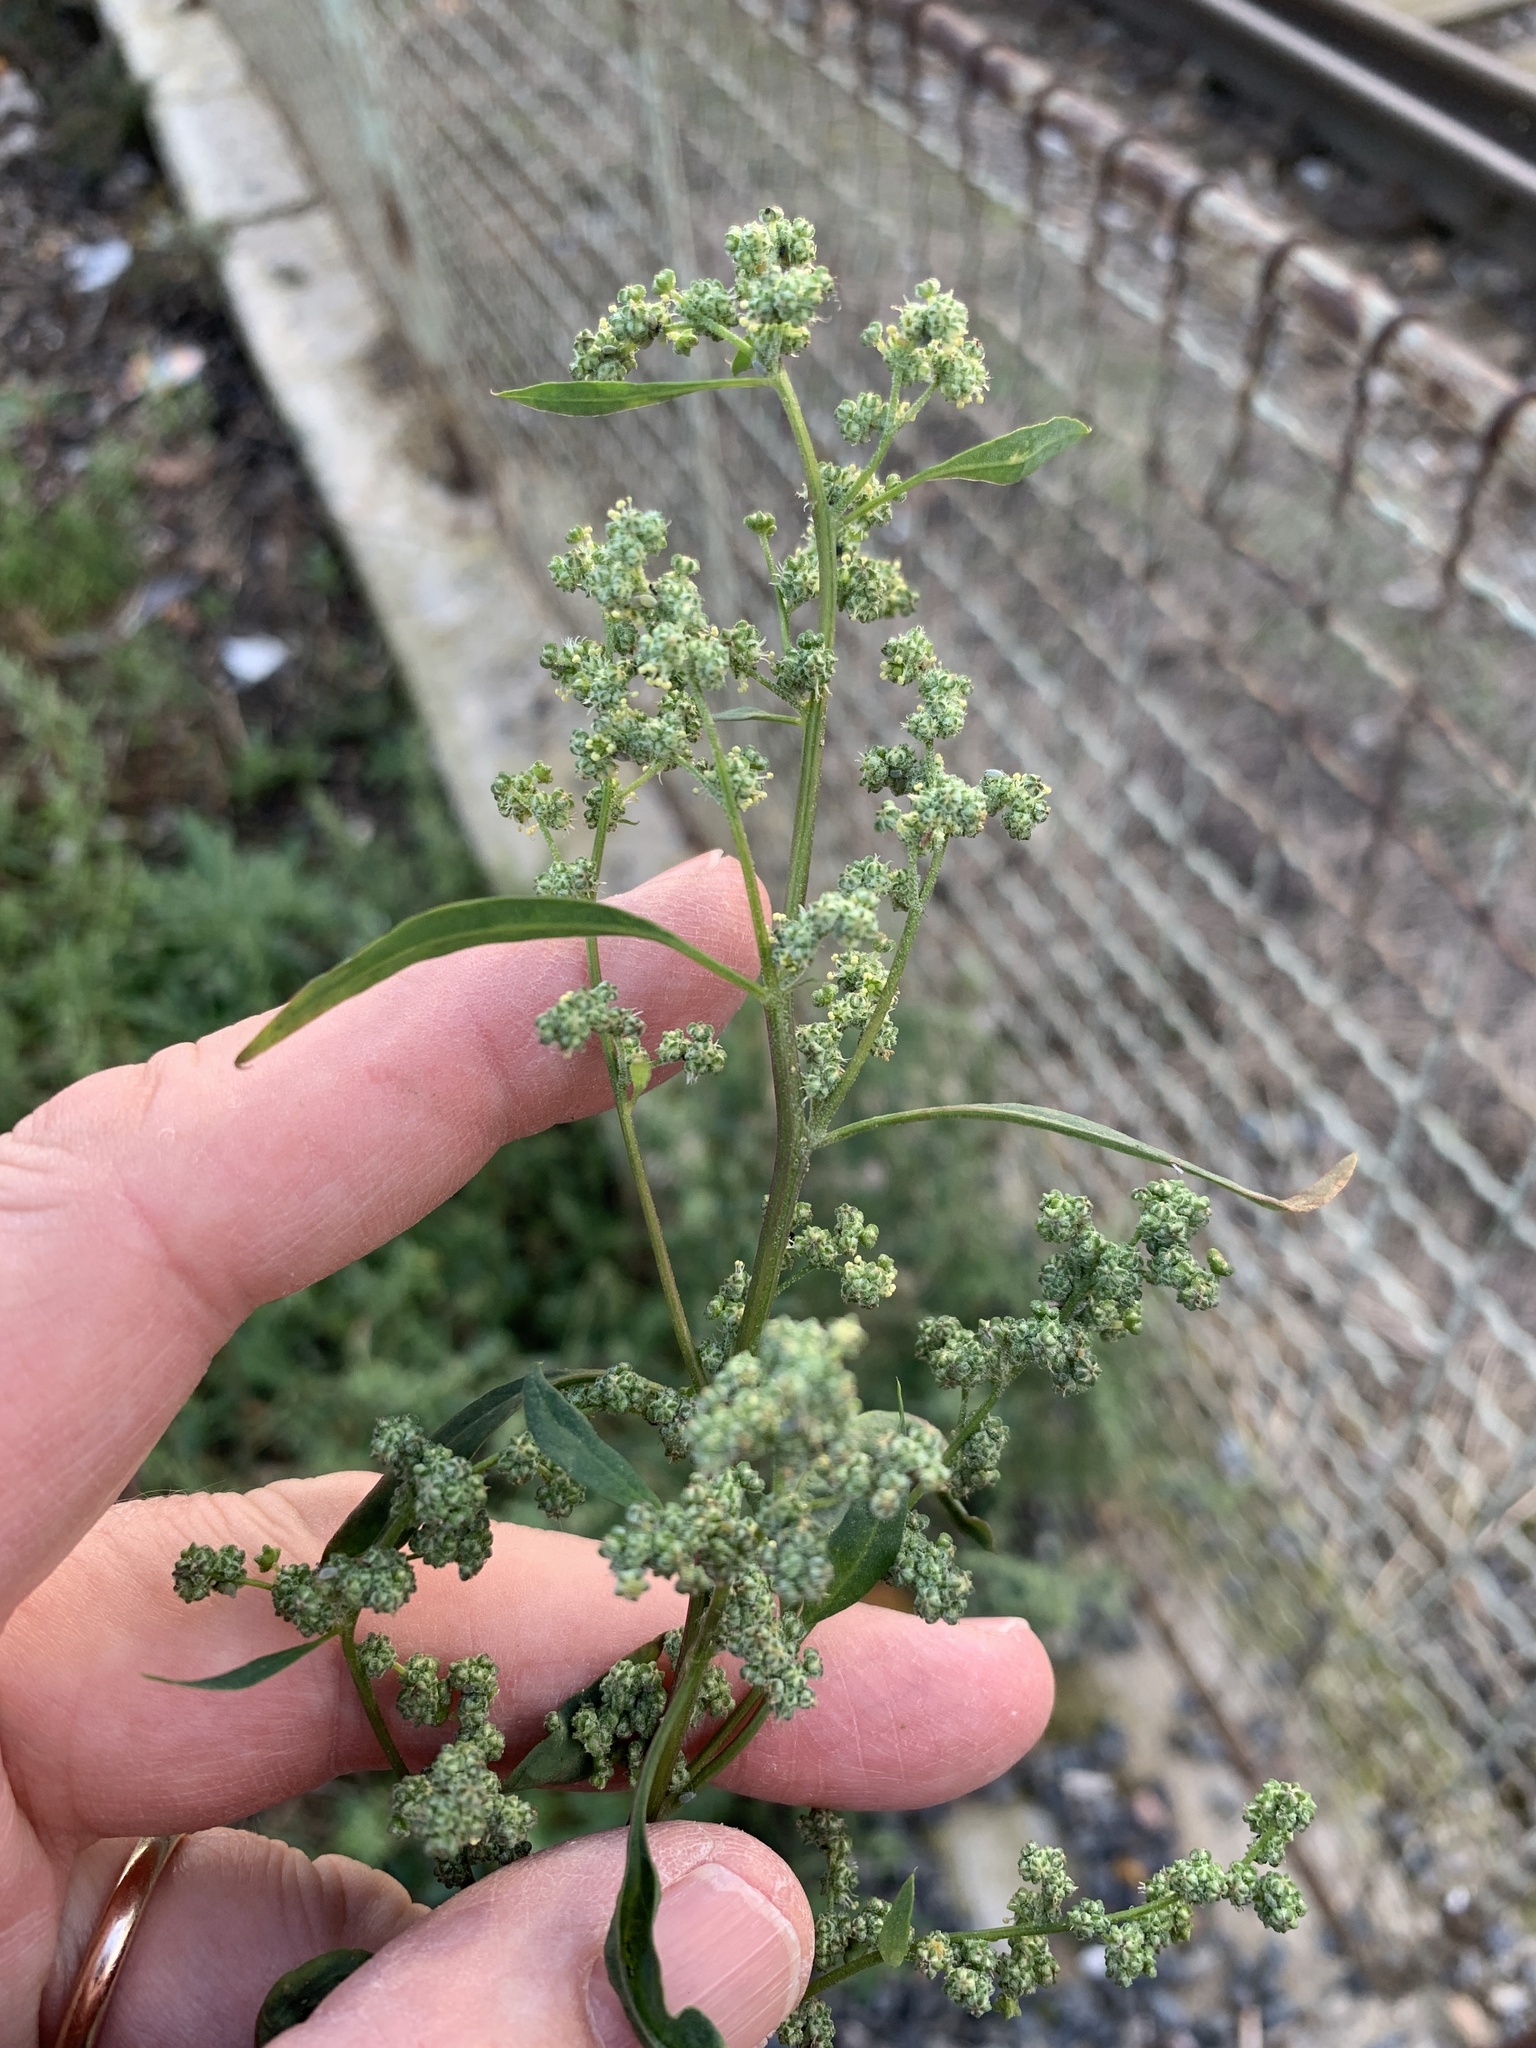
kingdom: Plantae
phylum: Tracheophyta
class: Magnoliopsida
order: Caryophyllales
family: Amaranthaceae
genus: Chenopodium
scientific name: Chenopodium album
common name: Fat-hen
